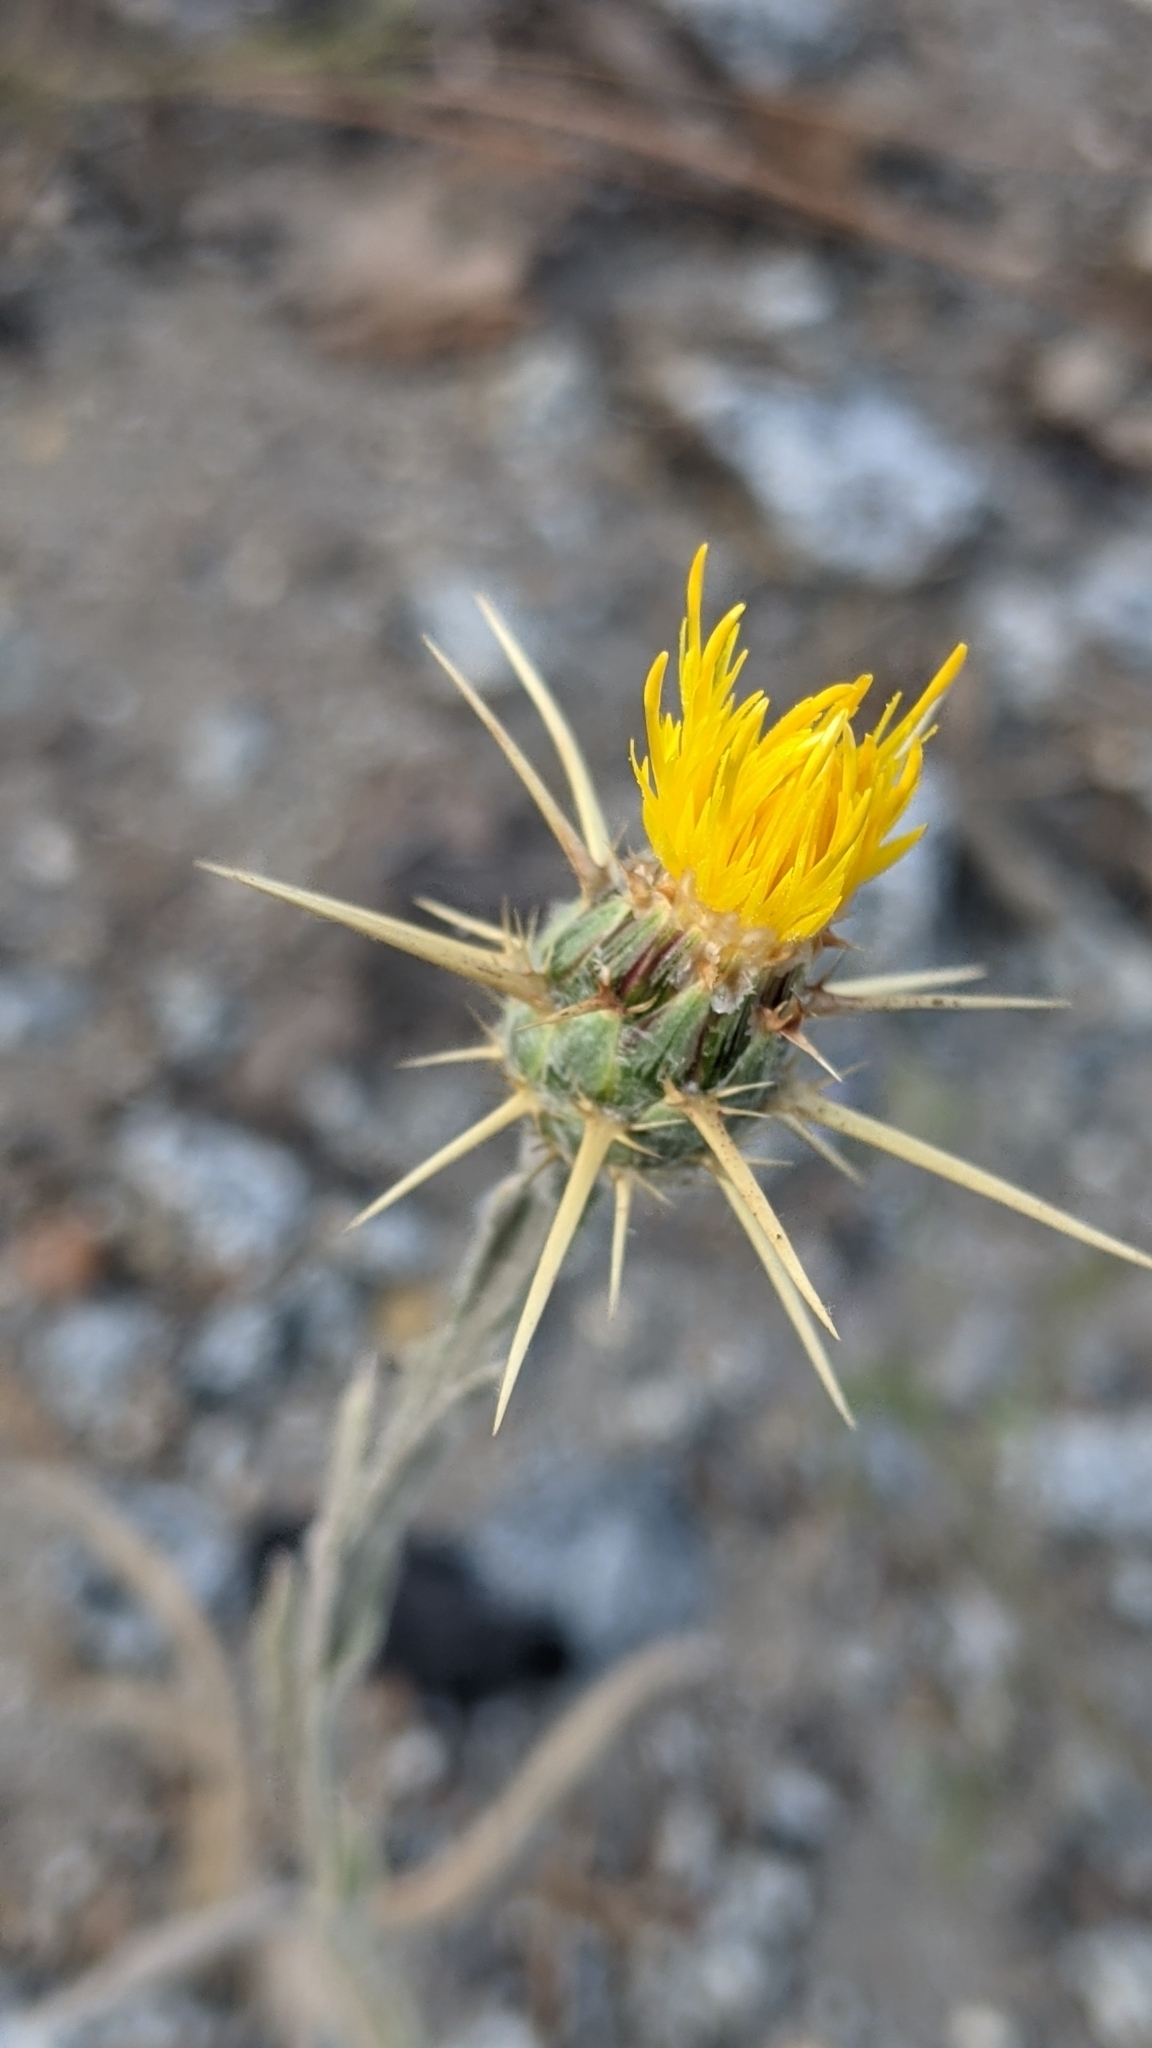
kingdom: Plantae
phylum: Tracheophyta
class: Magnoliopsida
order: Asterales
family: Asteraceae
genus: Centaurea
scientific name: Centaurea solstitialis
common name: Yellow star-thistle
